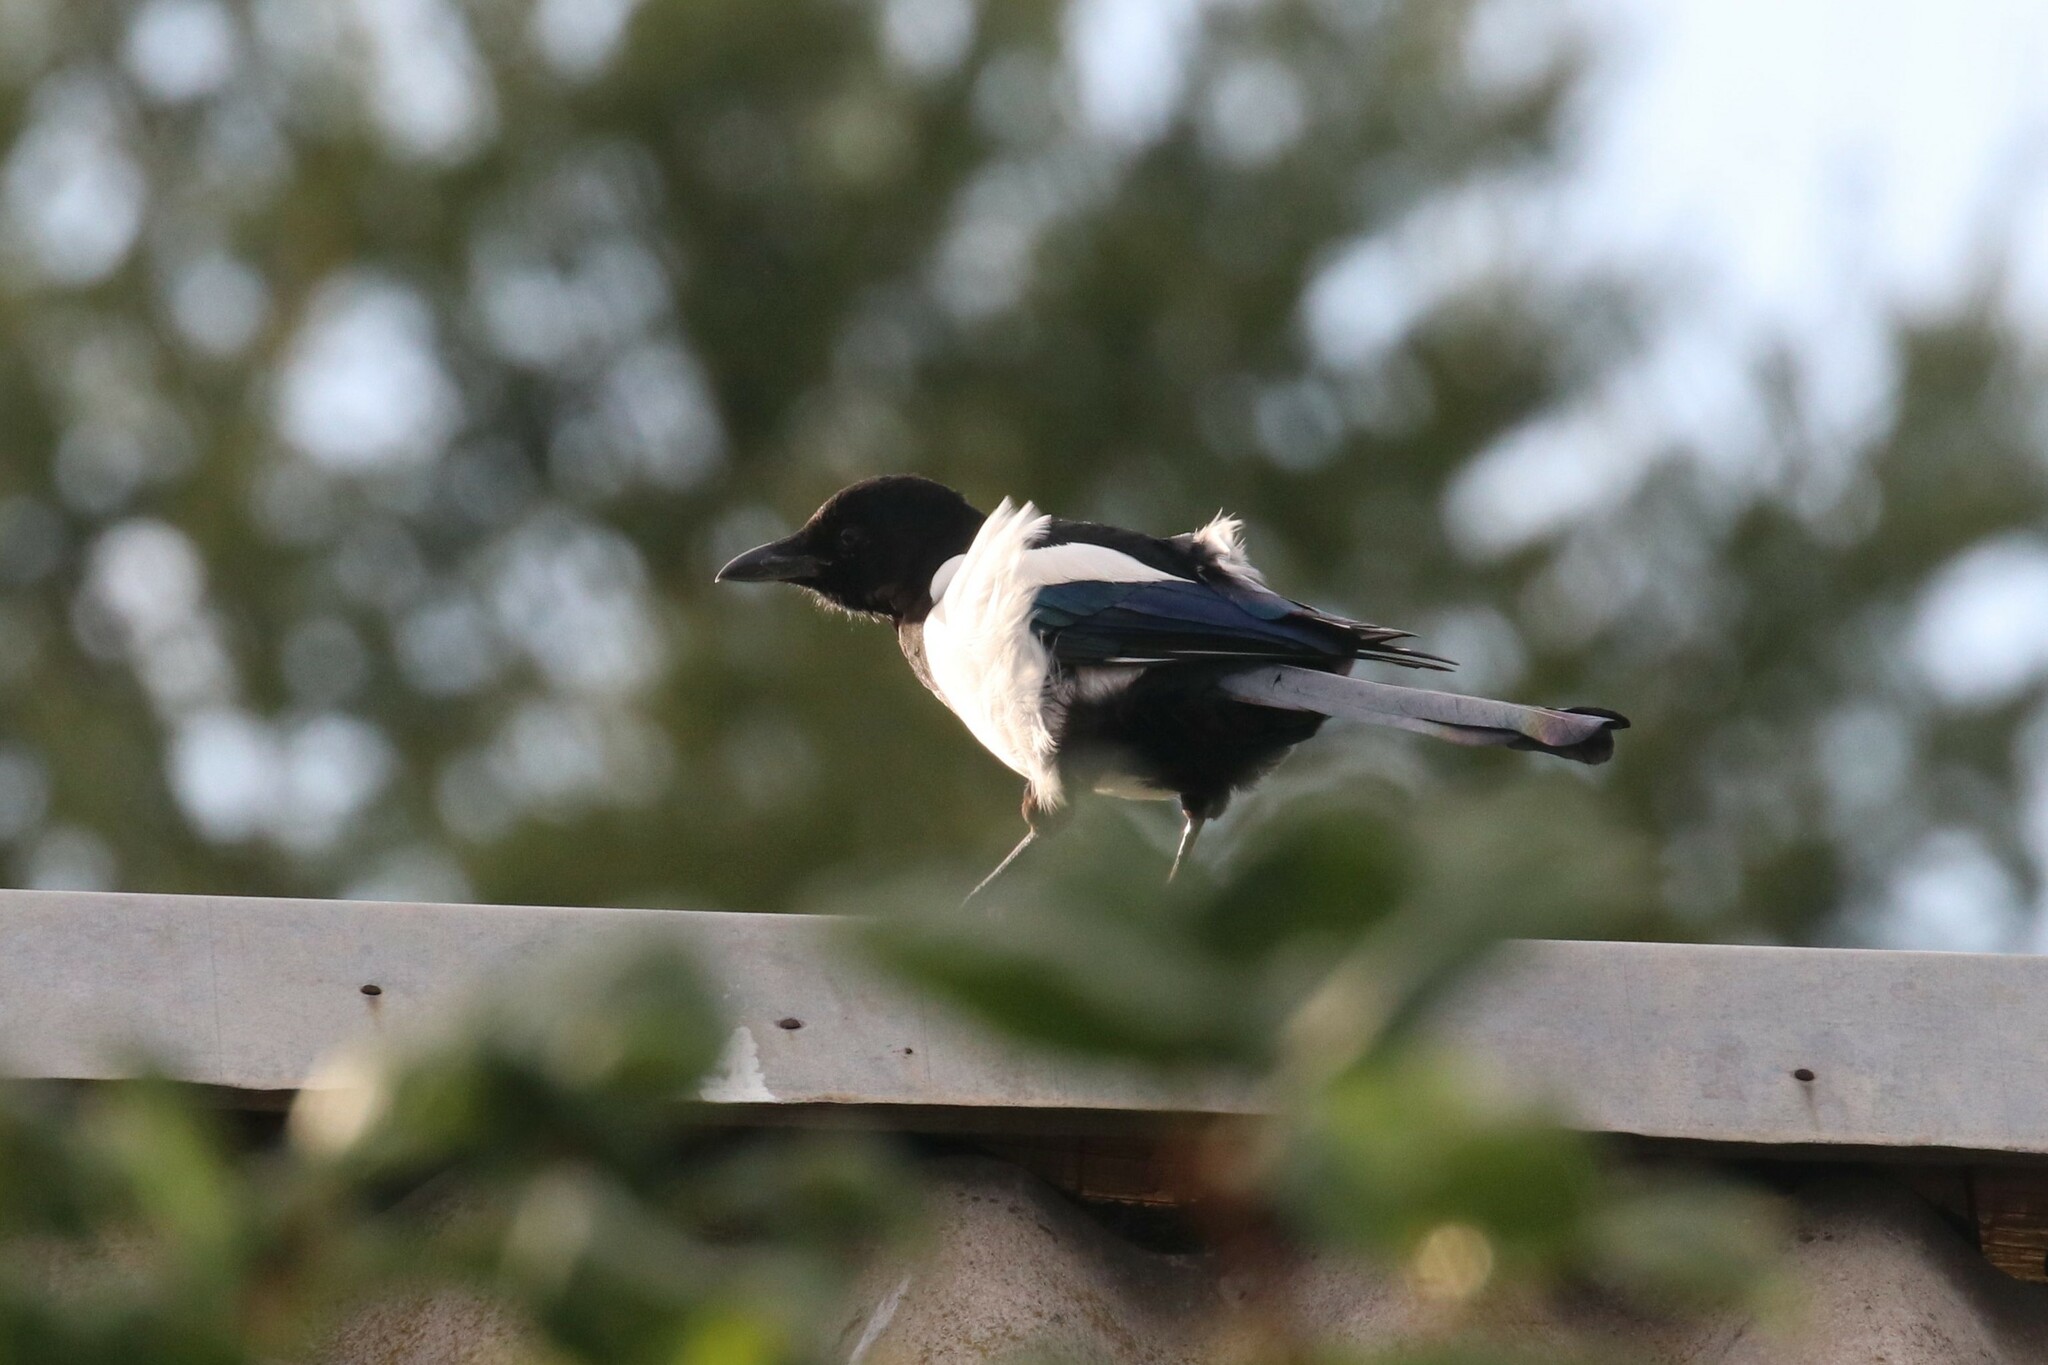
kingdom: Animalia
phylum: Chordata
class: Aves
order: Passeriformes
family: Corvidae
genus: Pica
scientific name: Pica pica
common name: Eurasian magpie
